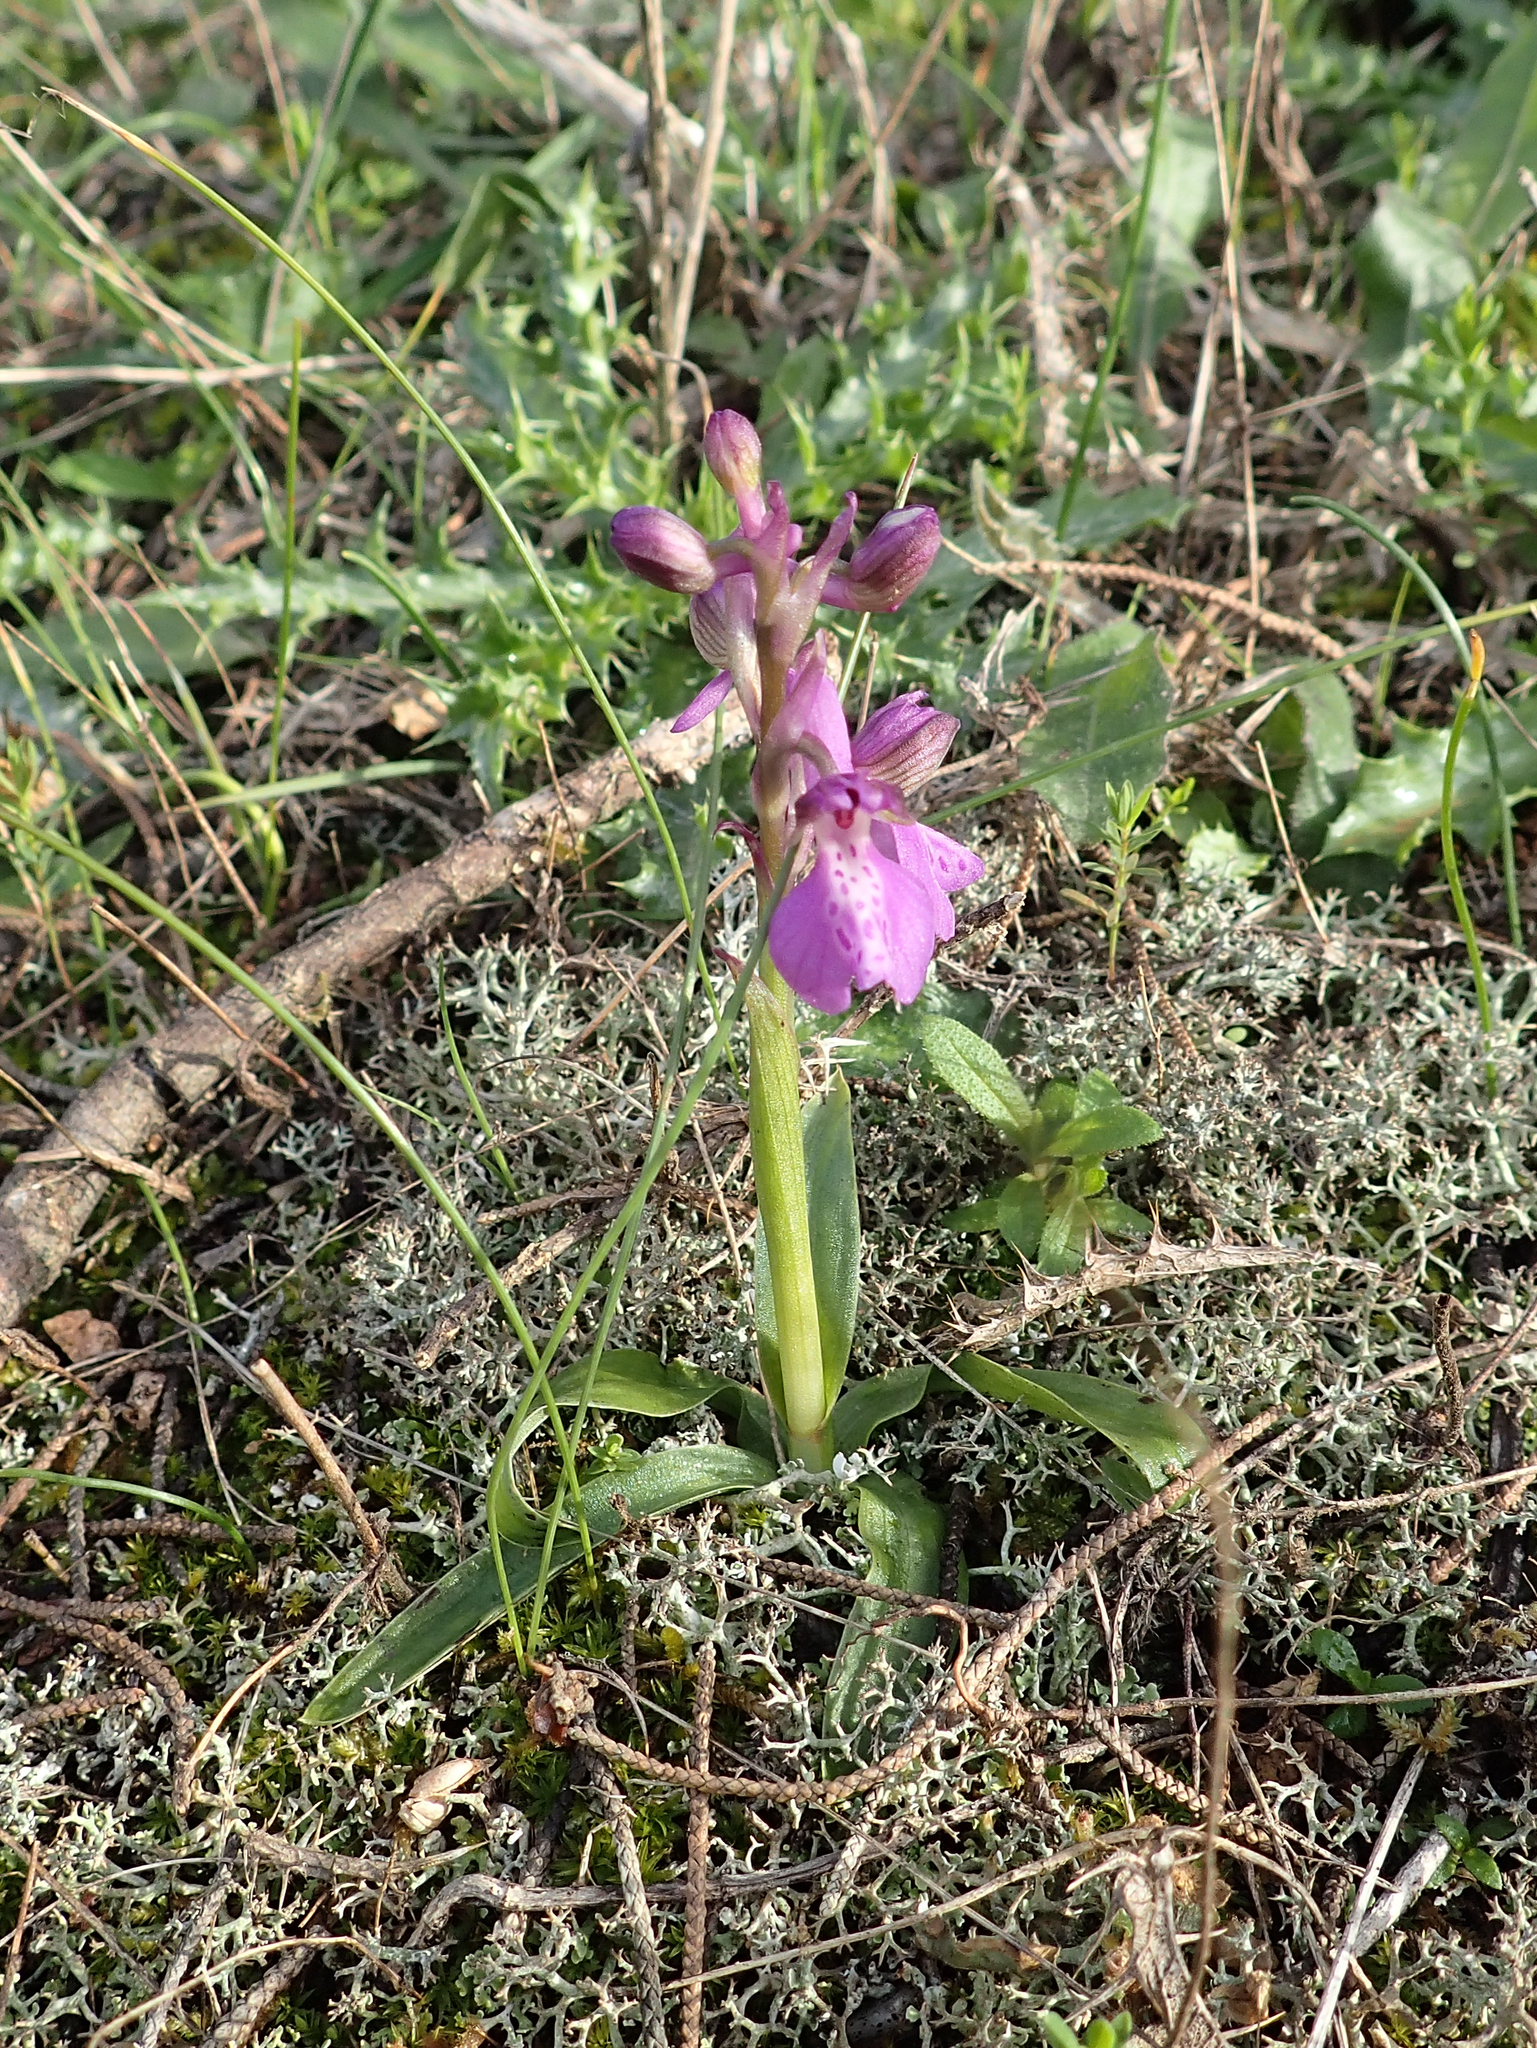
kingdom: Plantae
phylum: Tracheophyta
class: Liliopsida
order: Asparagales
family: Orchidaceae
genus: Anacamptis
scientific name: Anacamptis morio
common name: Green-winged orchid
